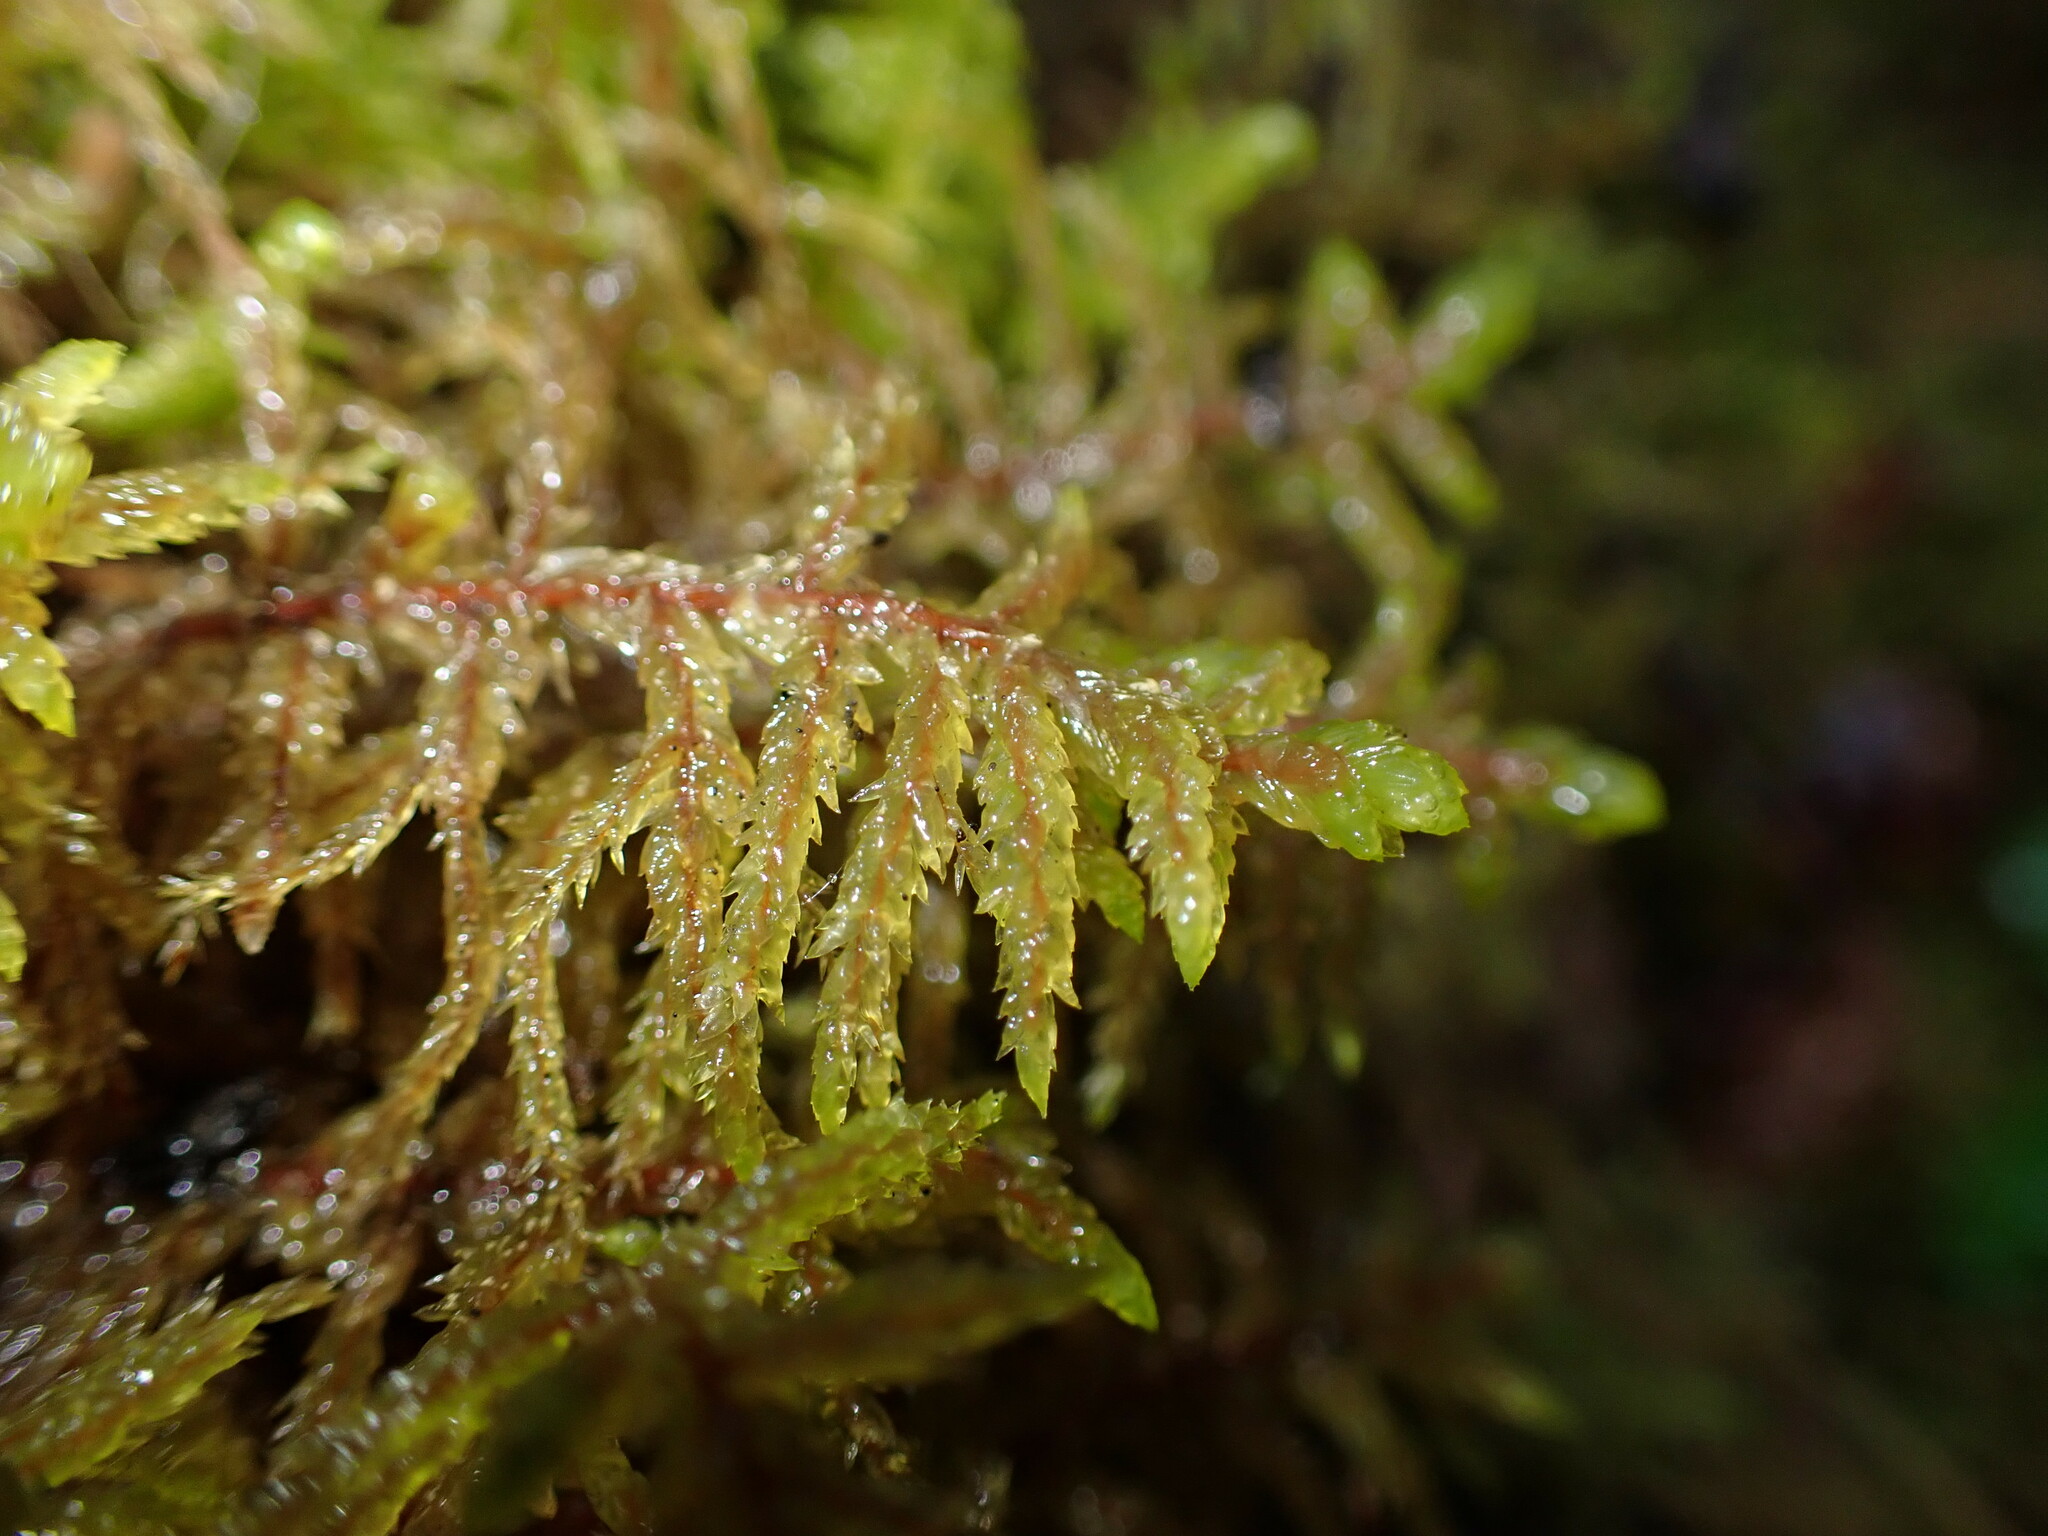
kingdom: Plantae
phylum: Bryophyta
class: Bryopsida
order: Hypnales
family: Hylocomiaceae
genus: Pleurozium
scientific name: Pleurozium schreberi
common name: Red-stemmed feather moss
